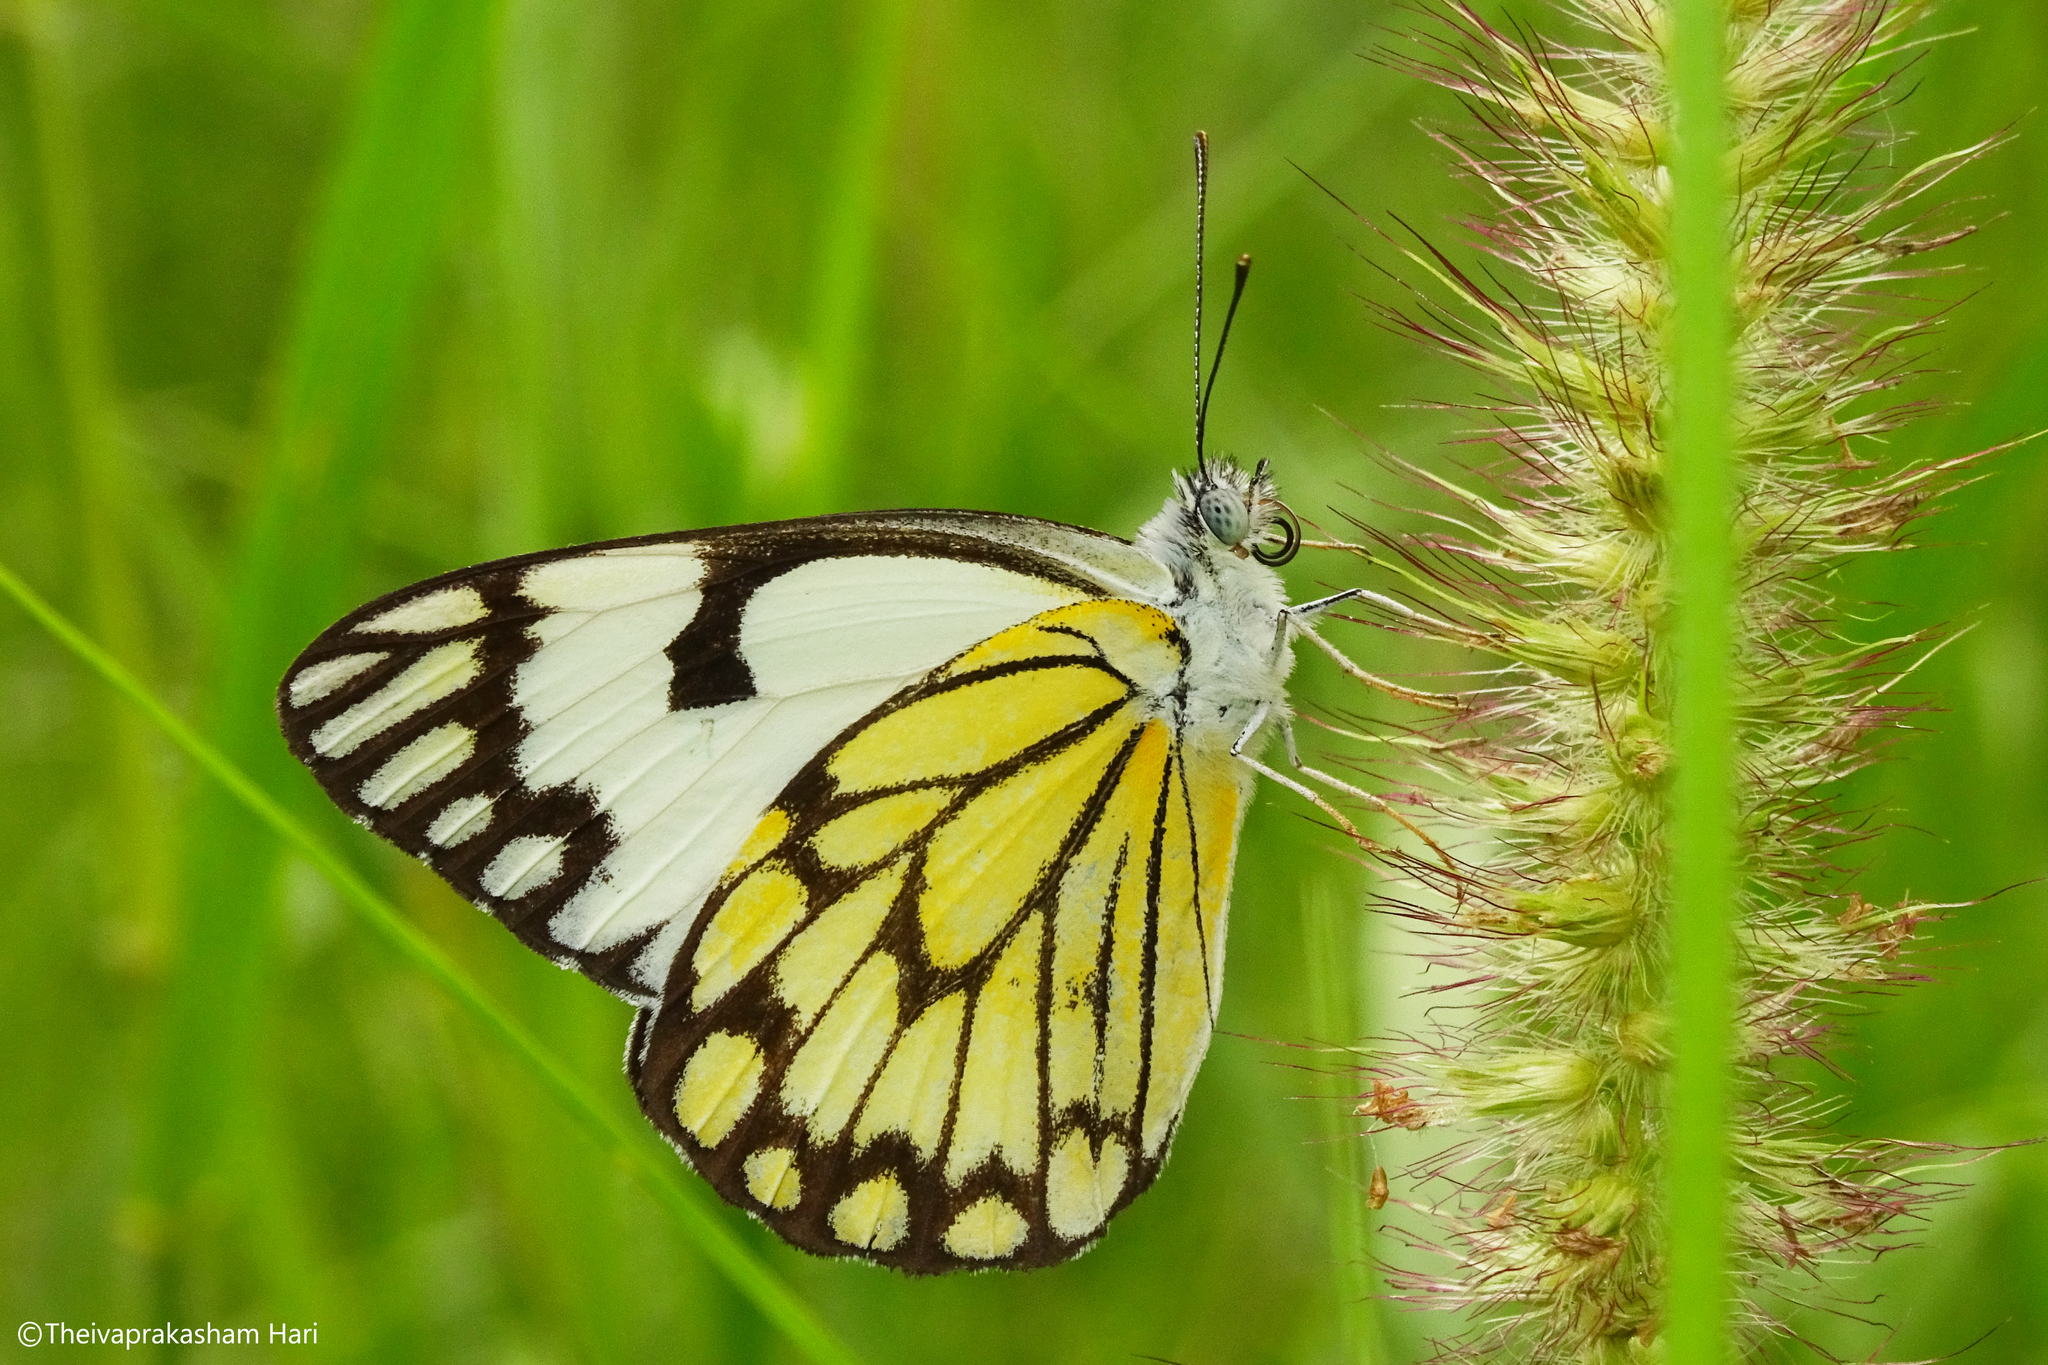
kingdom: Animalia
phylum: Arthropoda
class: Insecta
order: Lepidoptera
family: Pieridae
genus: Belenois
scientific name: Belenois aurota
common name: Brown-veined white
